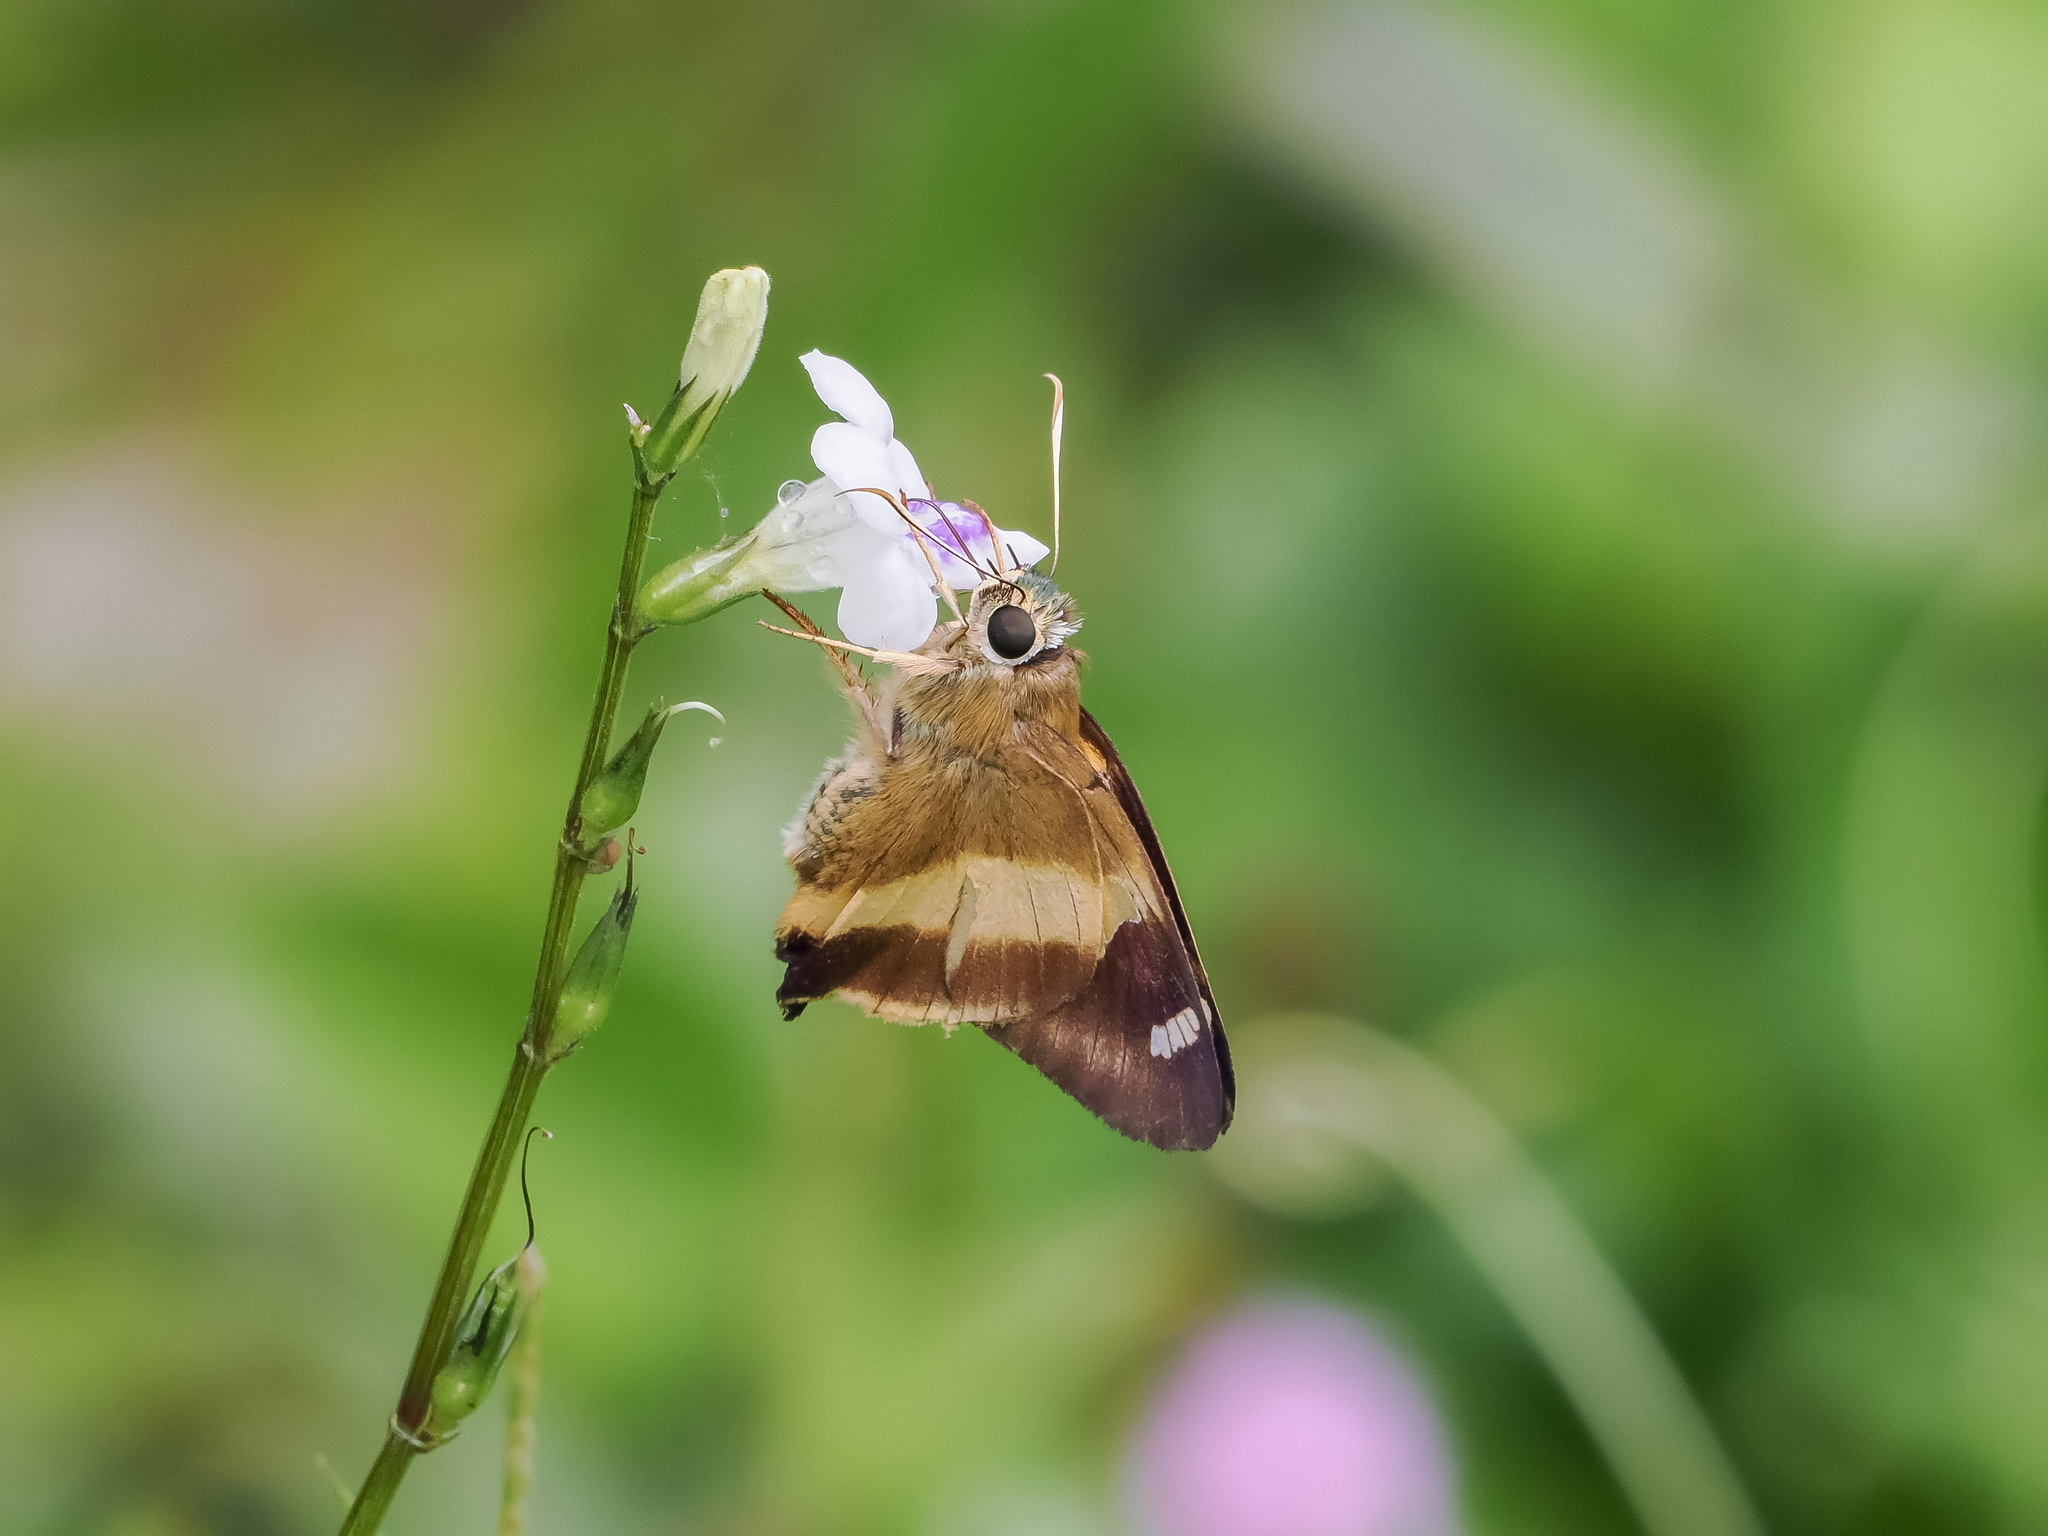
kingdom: Animalia
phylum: Arthropoda
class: Insecta
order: Lepidoptera
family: Hesperiidae
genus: Hasora
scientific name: Hasora schoenherr
